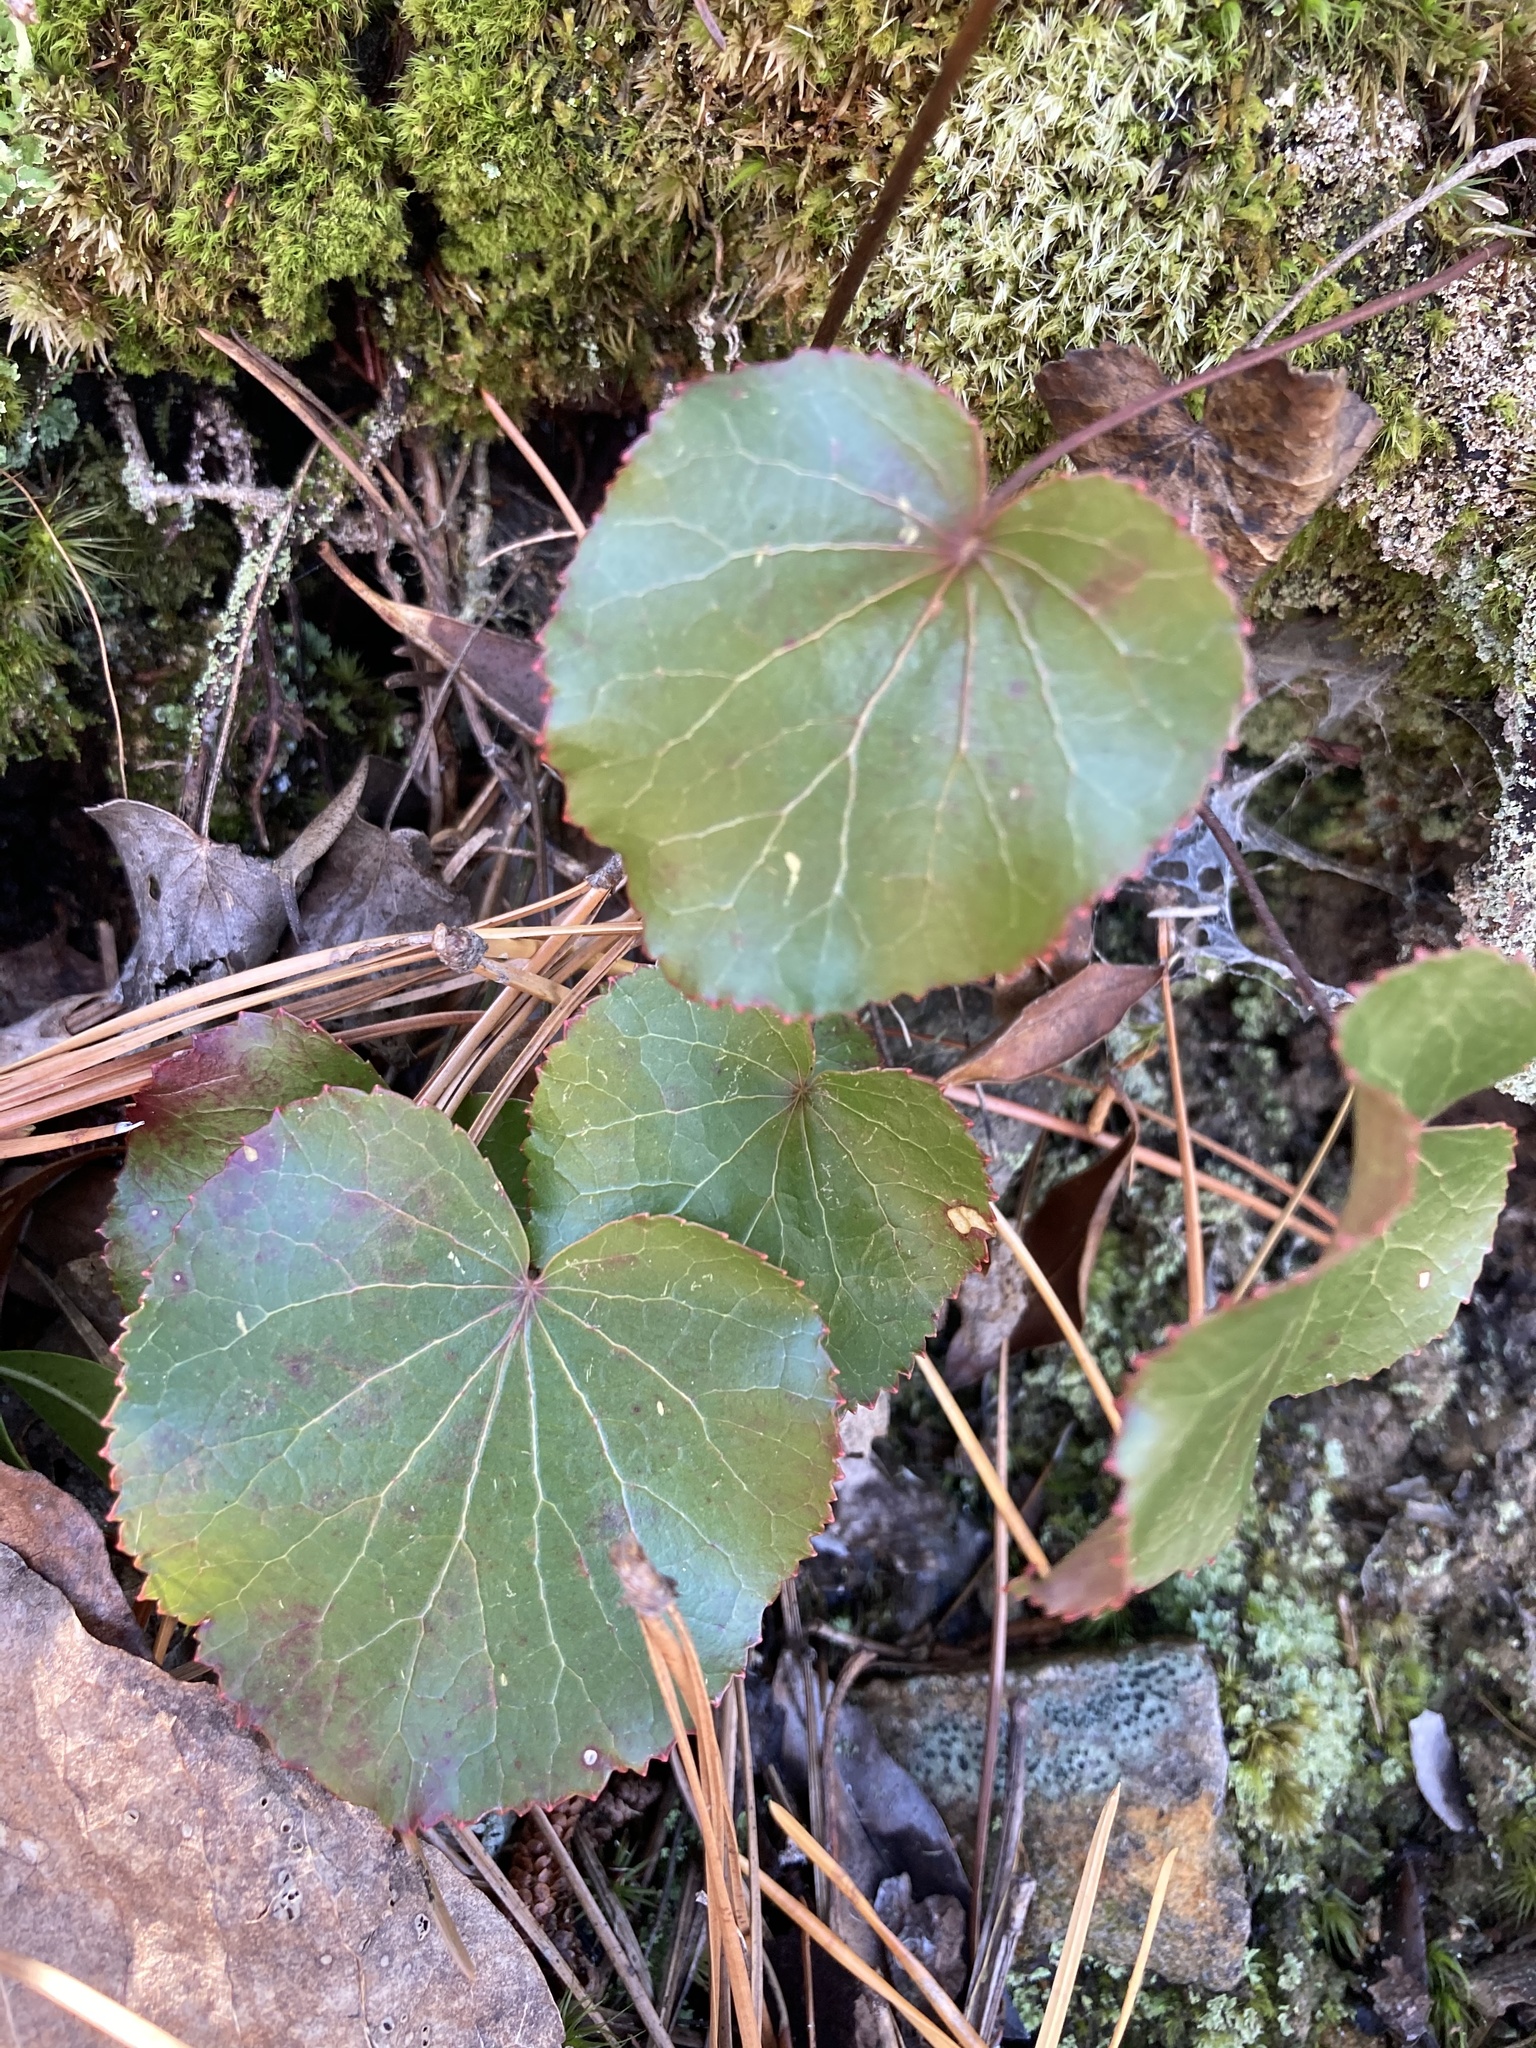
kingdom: Plantae
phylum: Tracheophyta
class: Magnoliopsida
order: Ericales
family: Diapensiaceae
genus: Galax
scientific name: Galax urceolata
